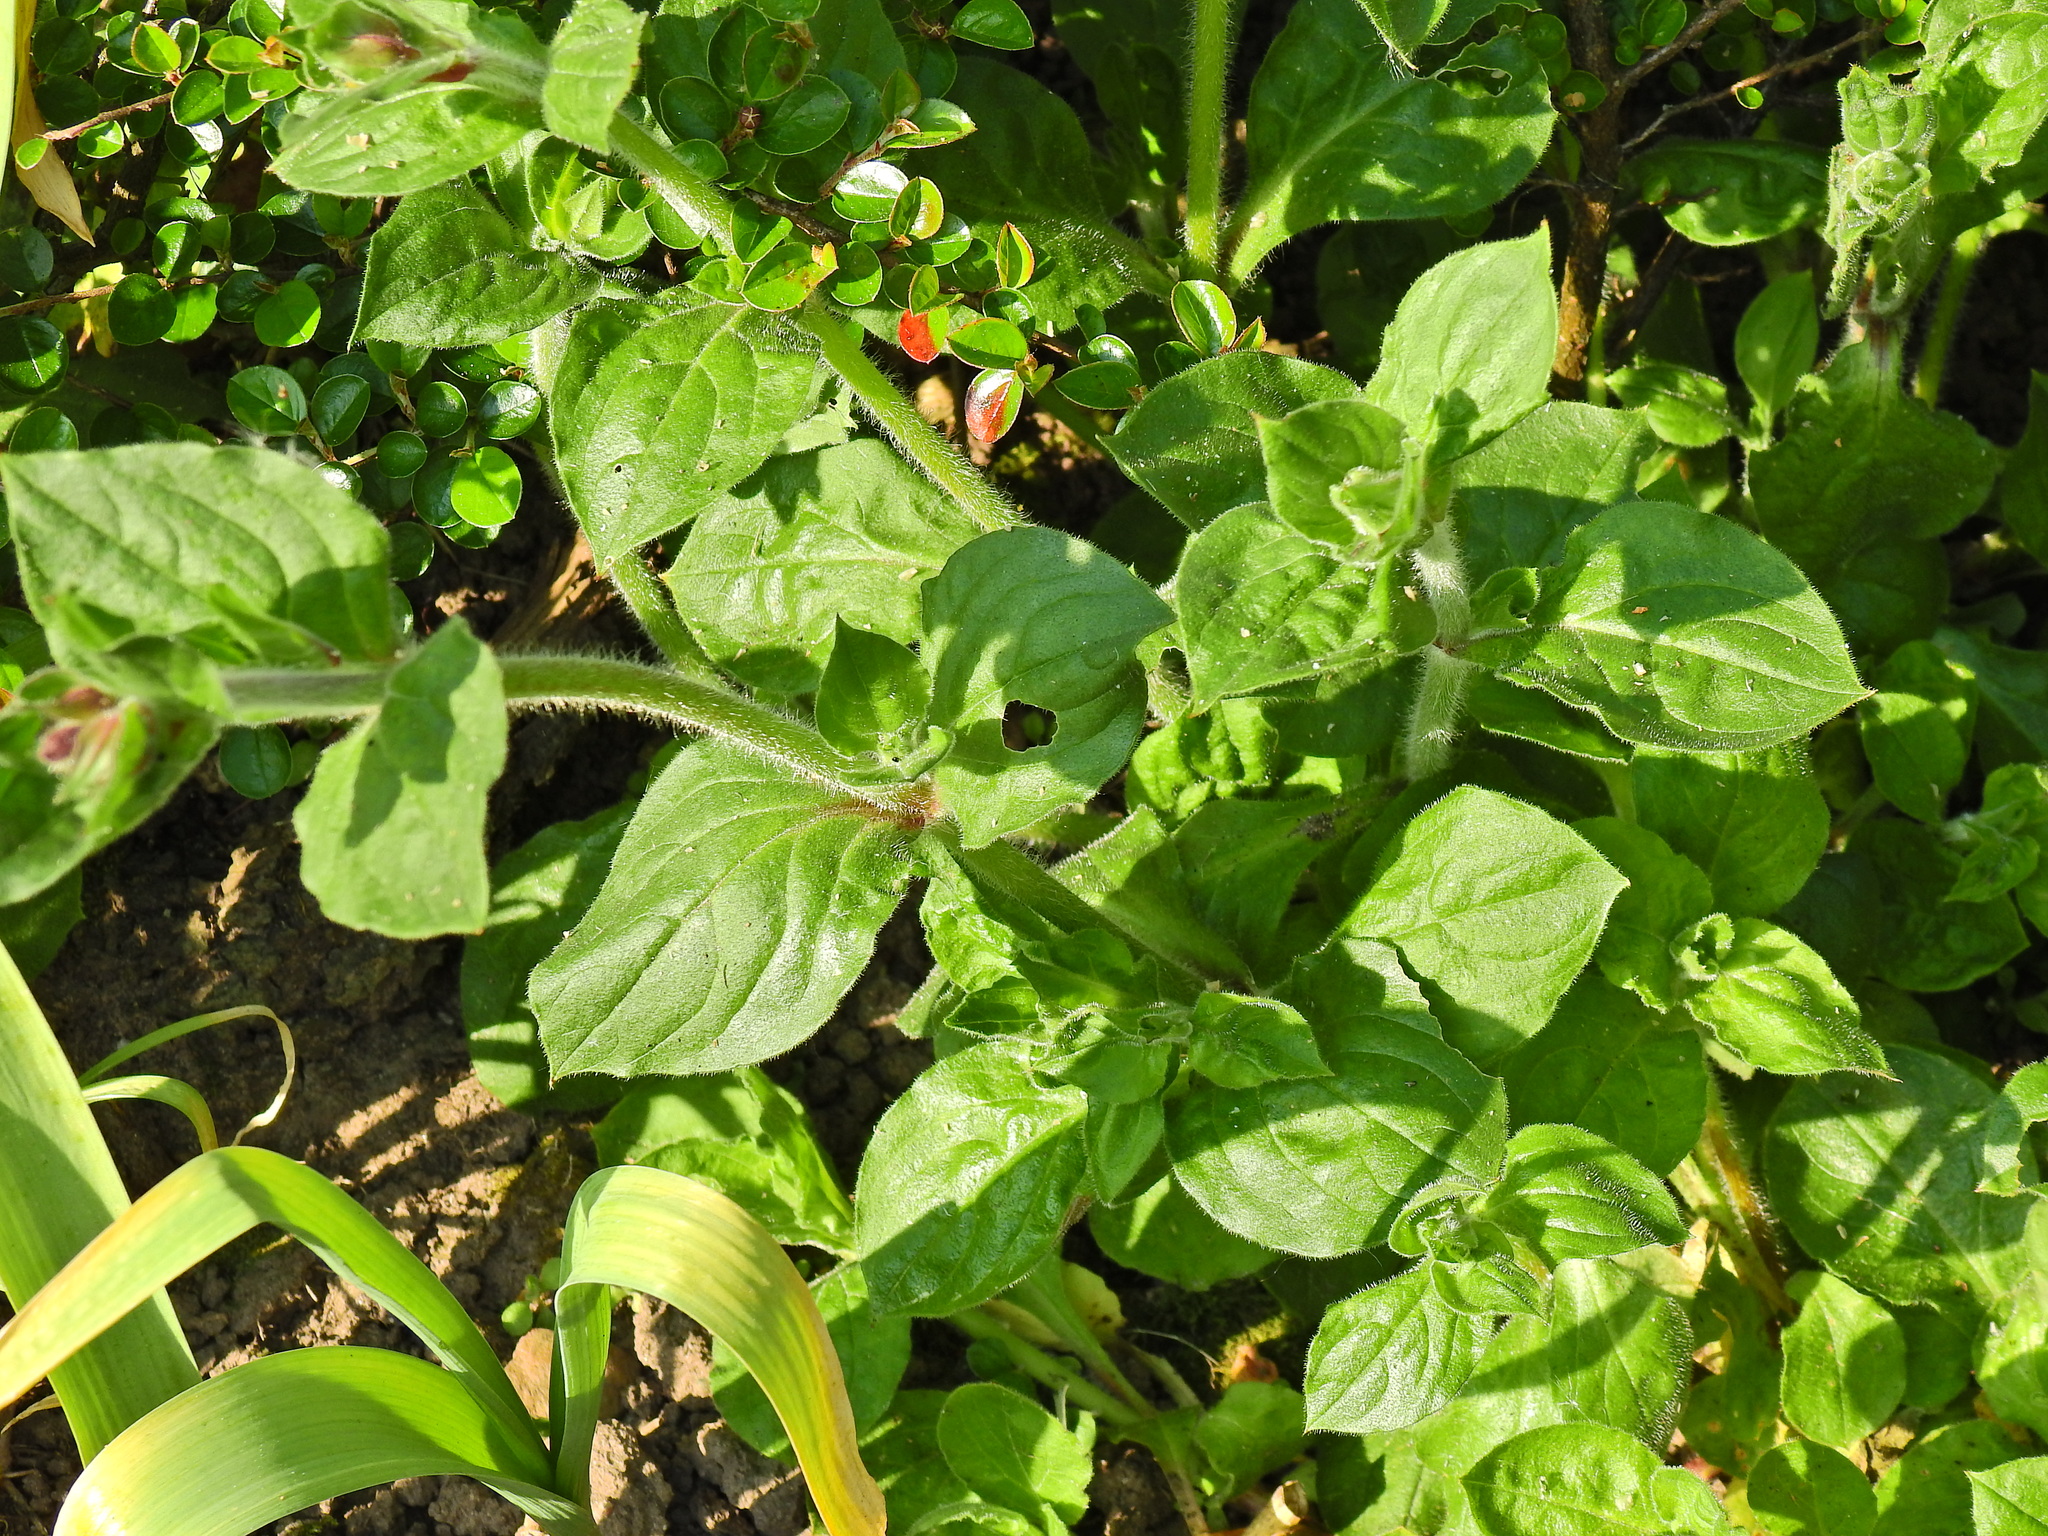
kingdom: Plantae
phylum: Tracheophyta
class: Magnoliopsida
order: Caryophyllales
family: Caryophyllaceae
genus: Silene
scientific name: Silene dioica
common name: Red campion
